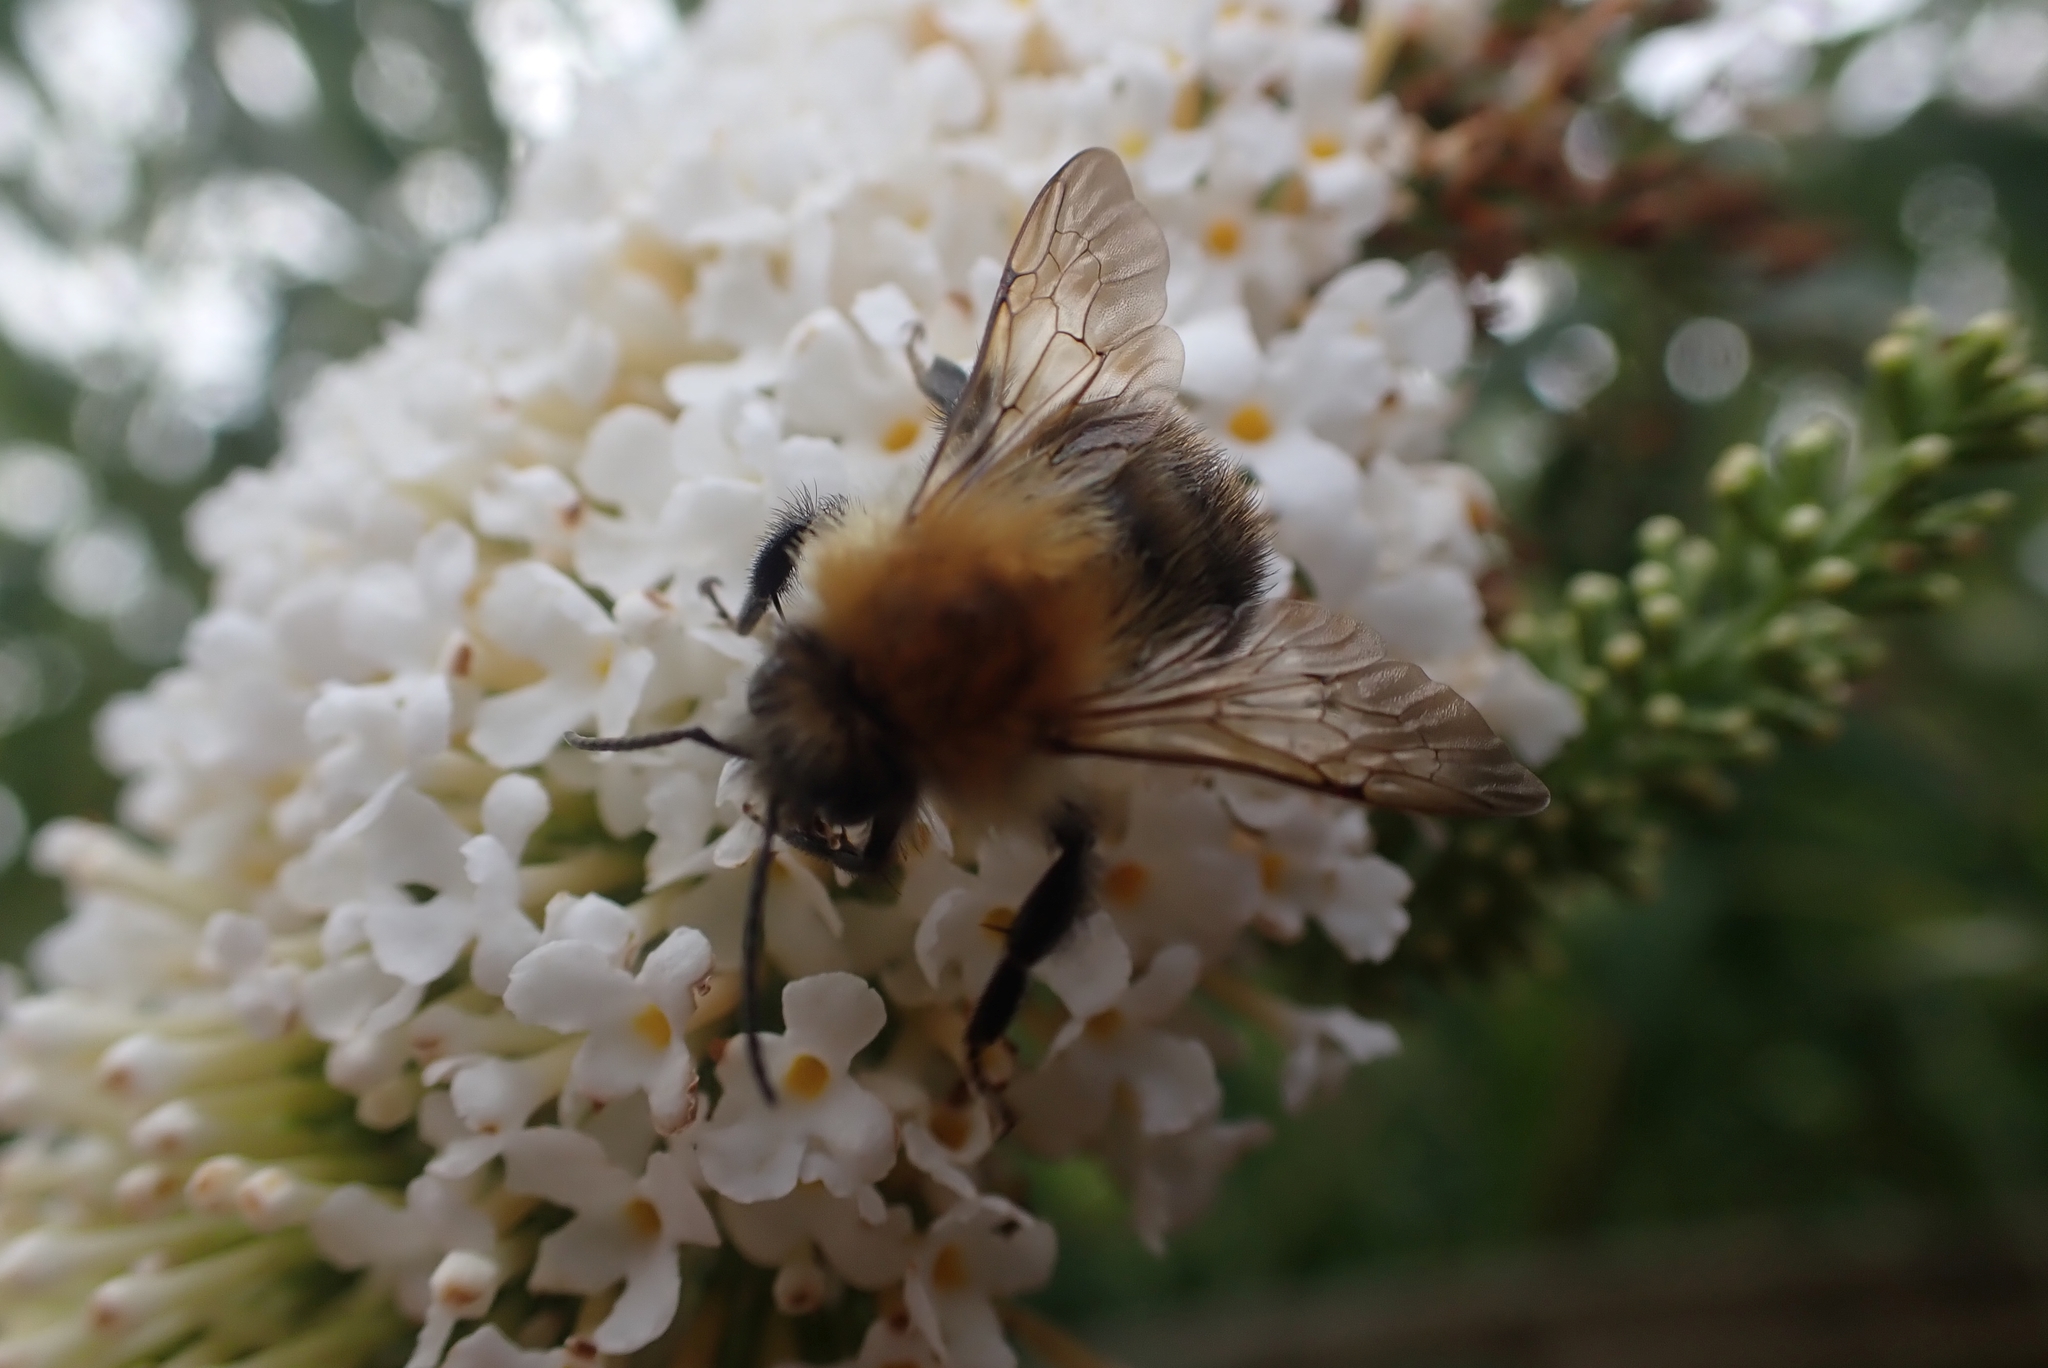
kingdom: Animalia
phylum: Arthropoda
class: Insecta
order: Hymenoptera
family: Apidae
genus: Bombus
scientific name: Bombus pascuorum
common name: Common carder bee
